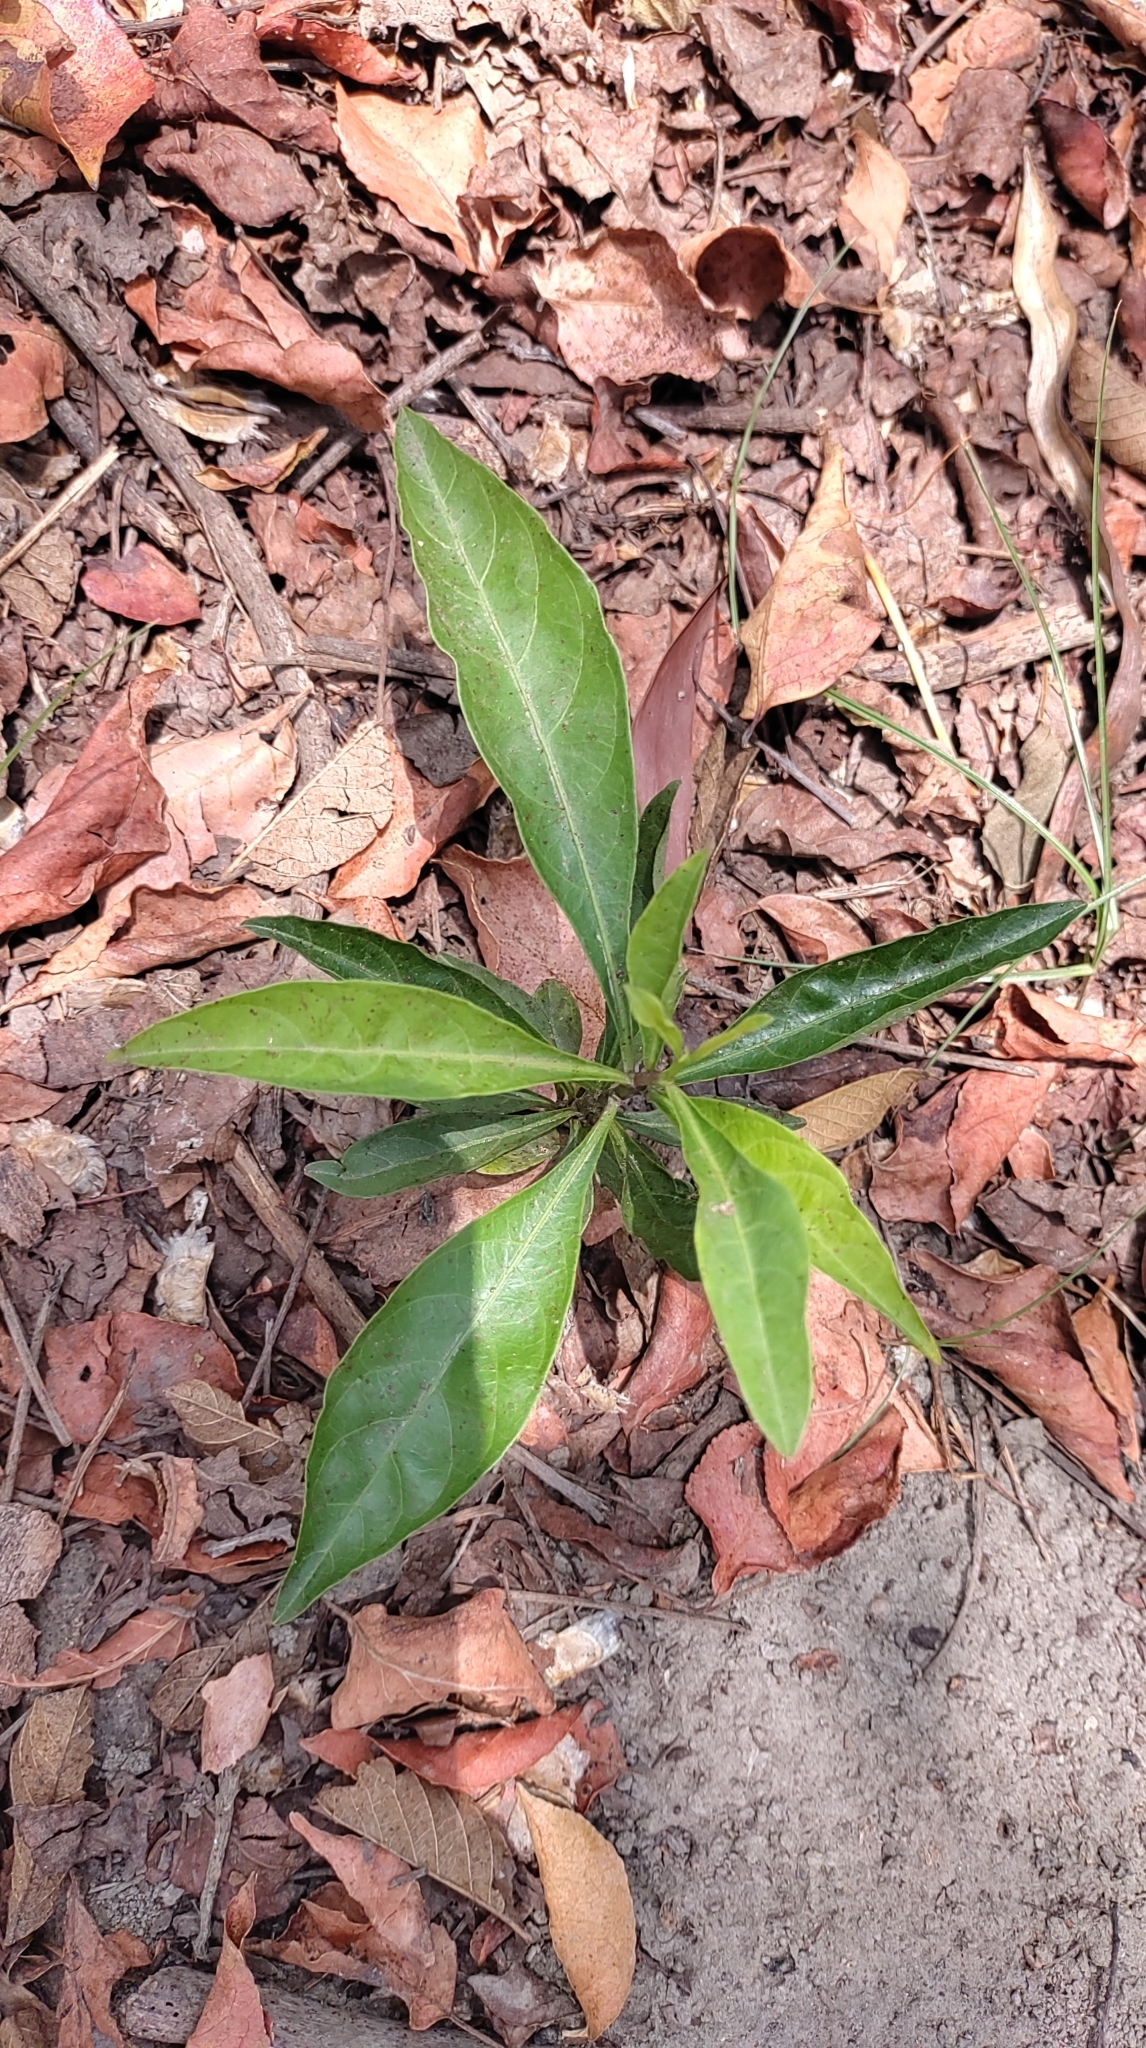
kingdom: Plantae
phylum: Tracheophyta
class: Magnoliopsida
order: Solanales
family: Solanaceae
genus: Solanum
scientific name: Solanum diphyllum
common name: Twoleaf nightshade
